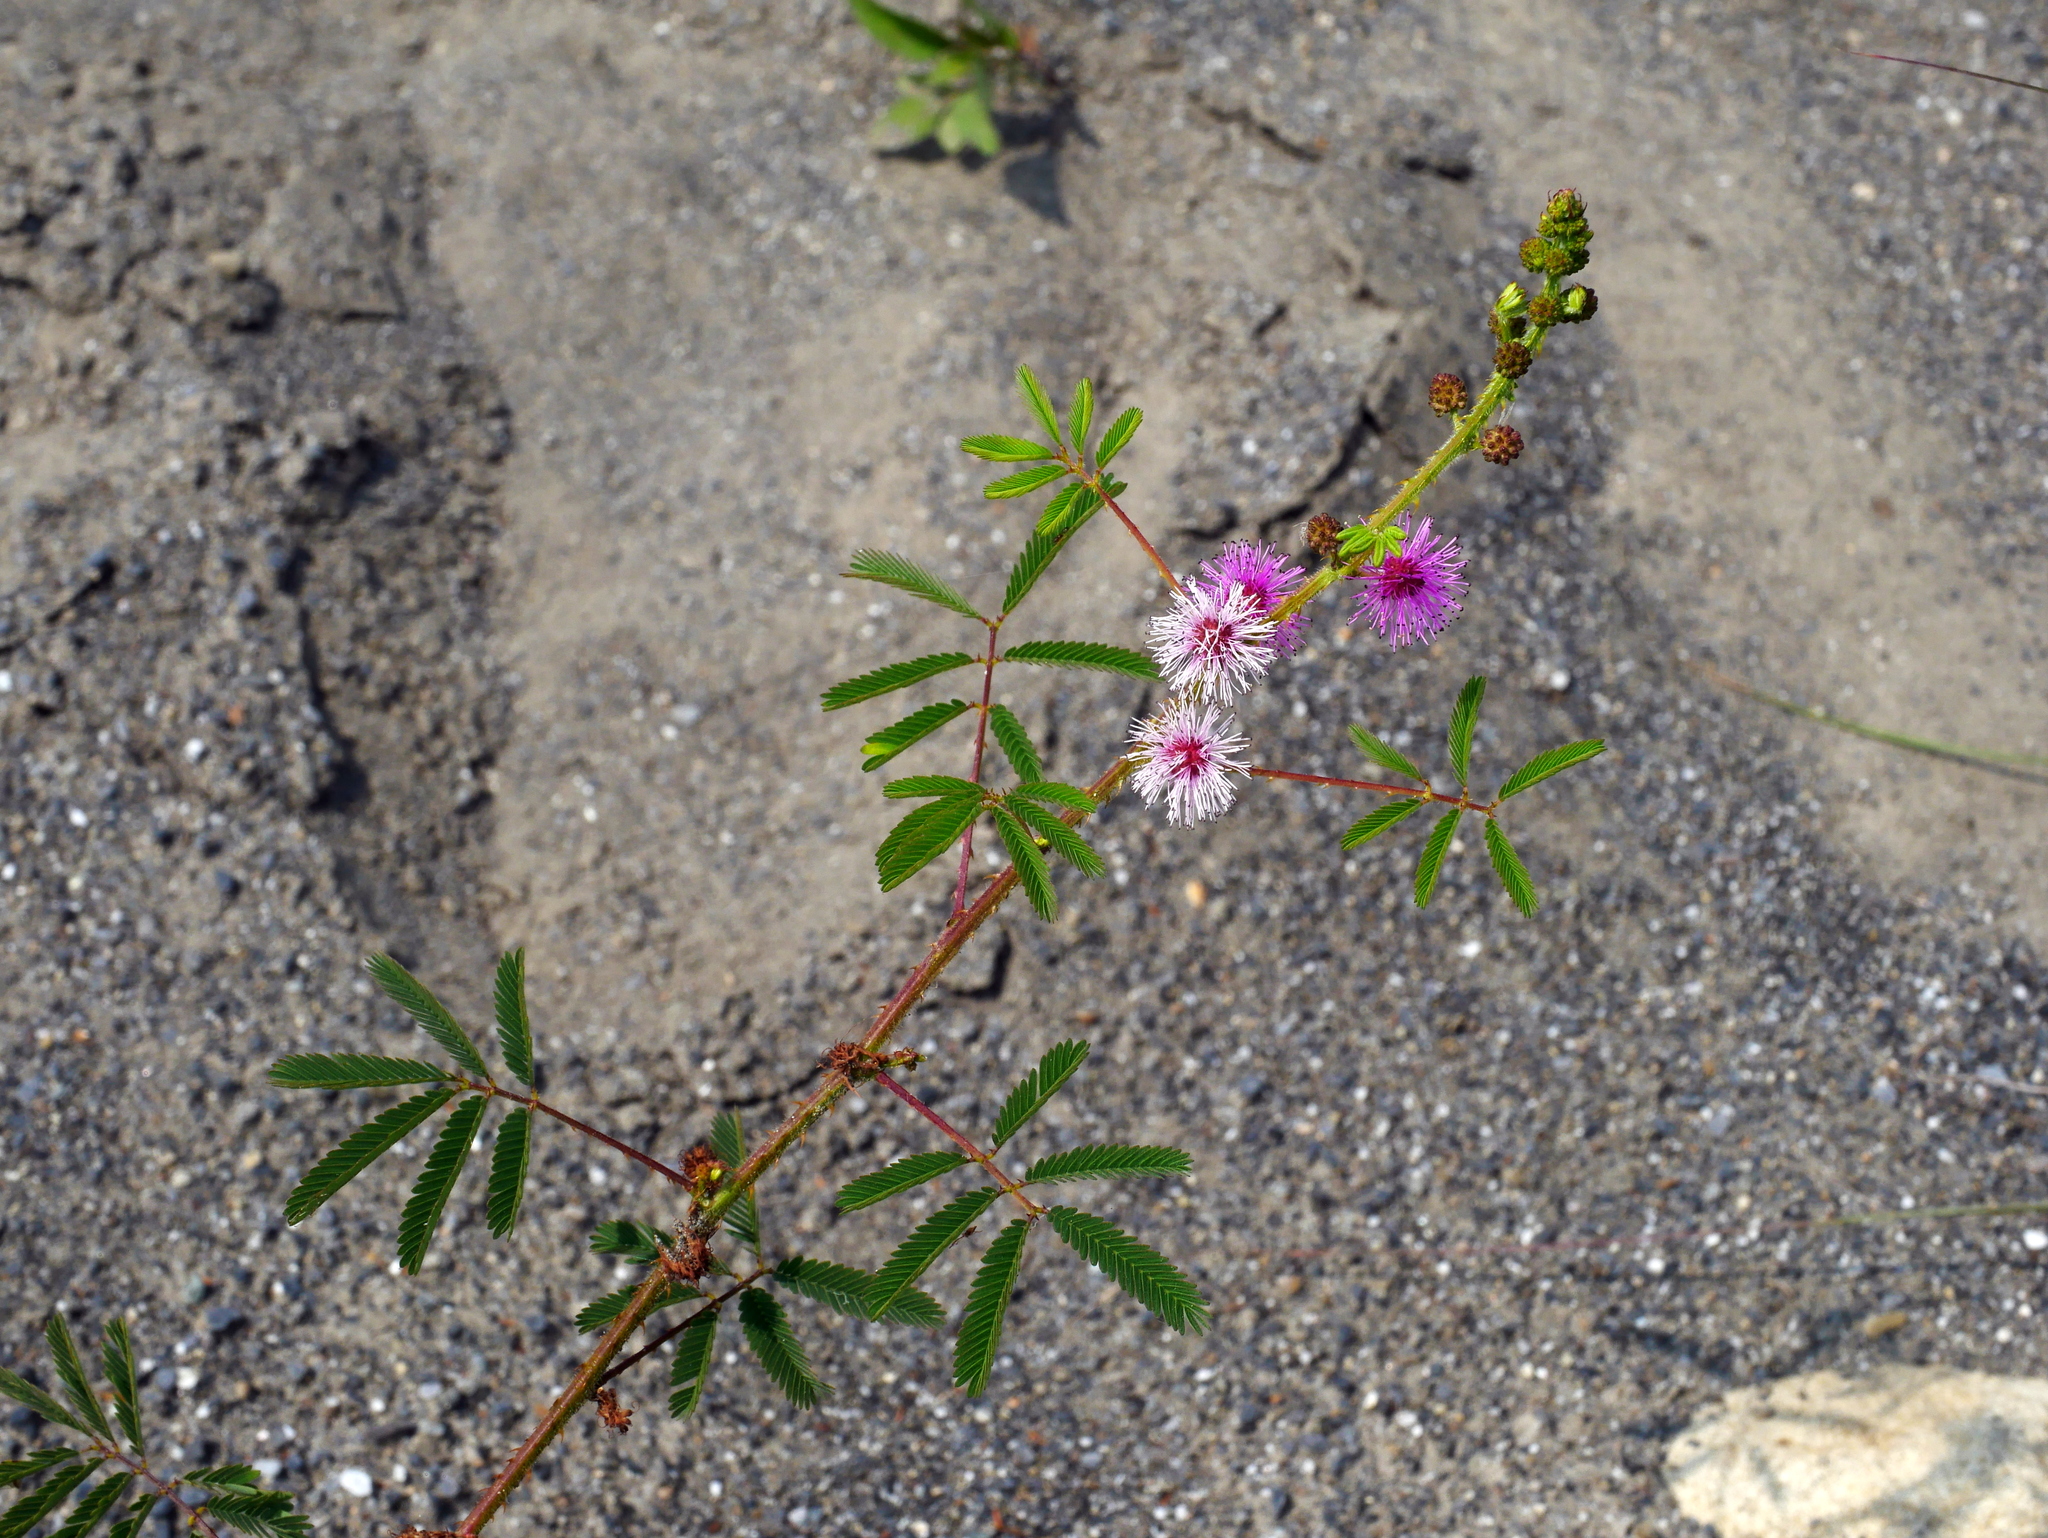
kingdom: Plantae
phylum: Tracheophyta
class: Magnoliopsida
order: Fabales
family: Fabaceae
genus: Mimosa
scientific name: Mimosa diplotricha
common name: Giant sensitive-plant
